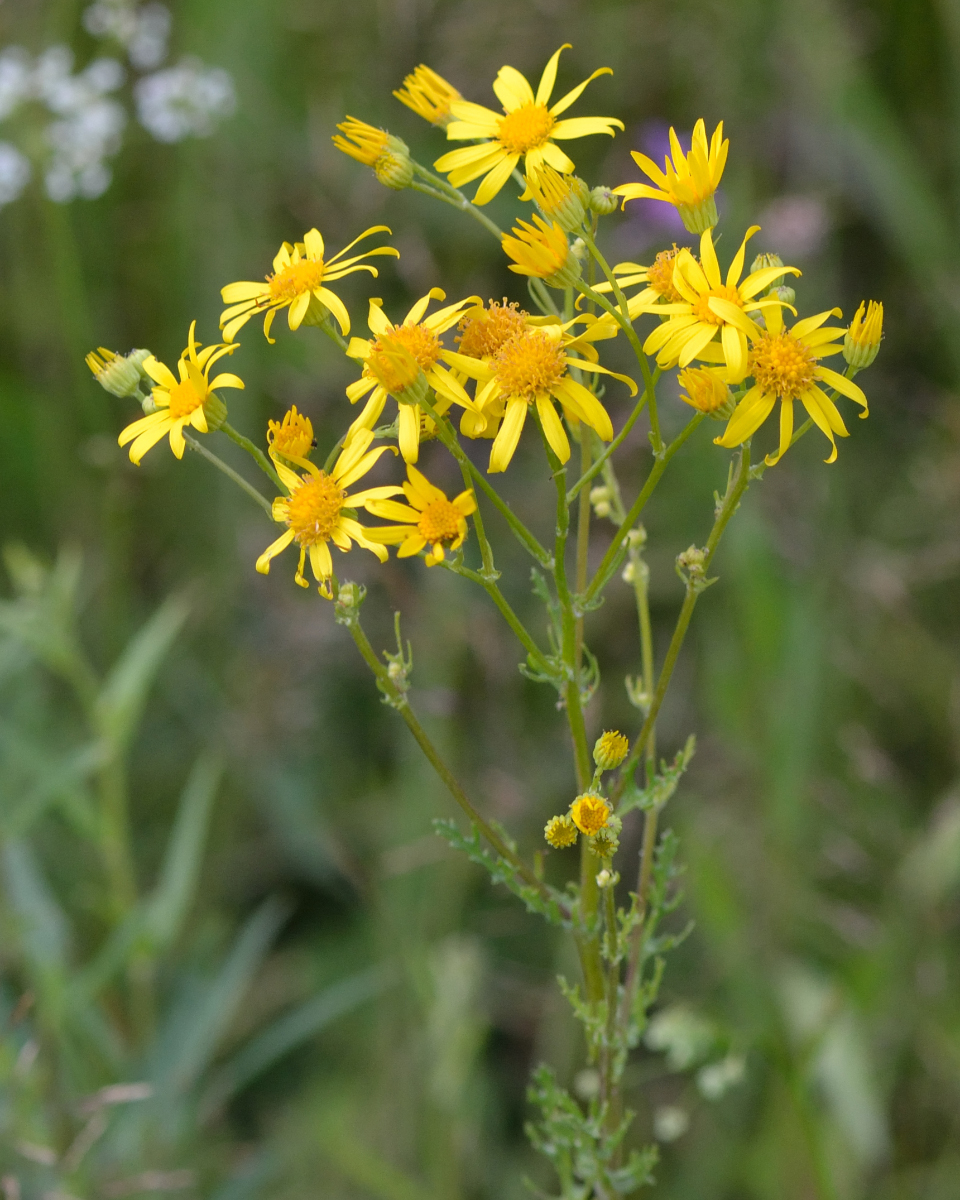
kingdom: Plantae
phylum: Tracheophyta
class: Magnoliopsida
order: Asterales
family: Asteraceae
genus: Jacobaea
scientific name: Jacobaea vulgaris
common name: Stinking willie
